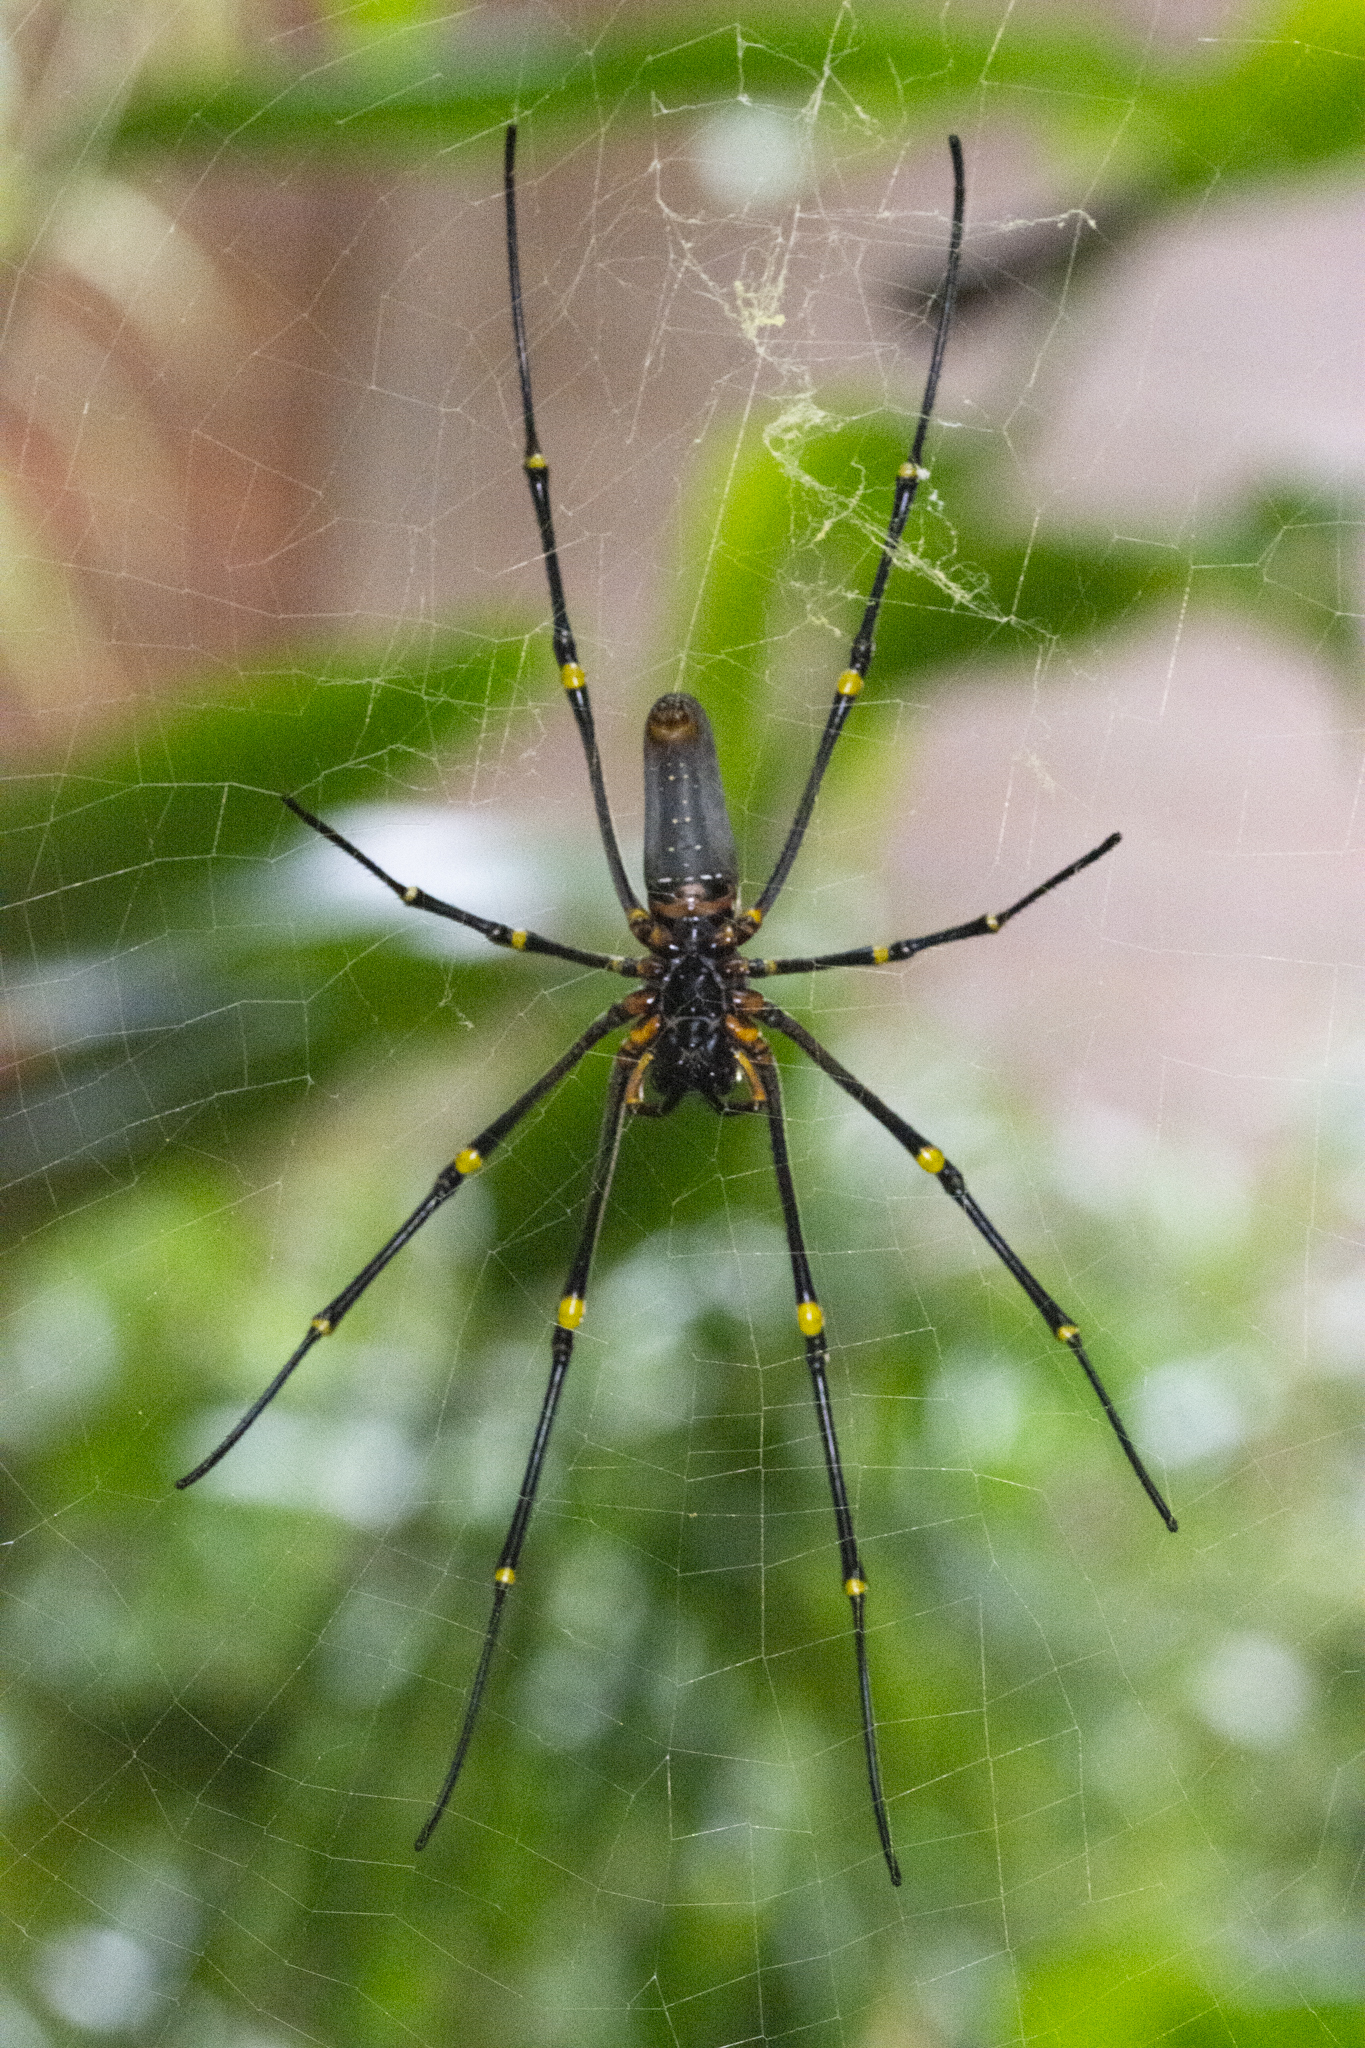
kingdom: Animalia
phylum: Arthropoda
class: Arachnida
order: Araneae
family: Araneidae
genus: Nephila
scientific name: Nephila pilipes
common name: Giant golden orb weaver
